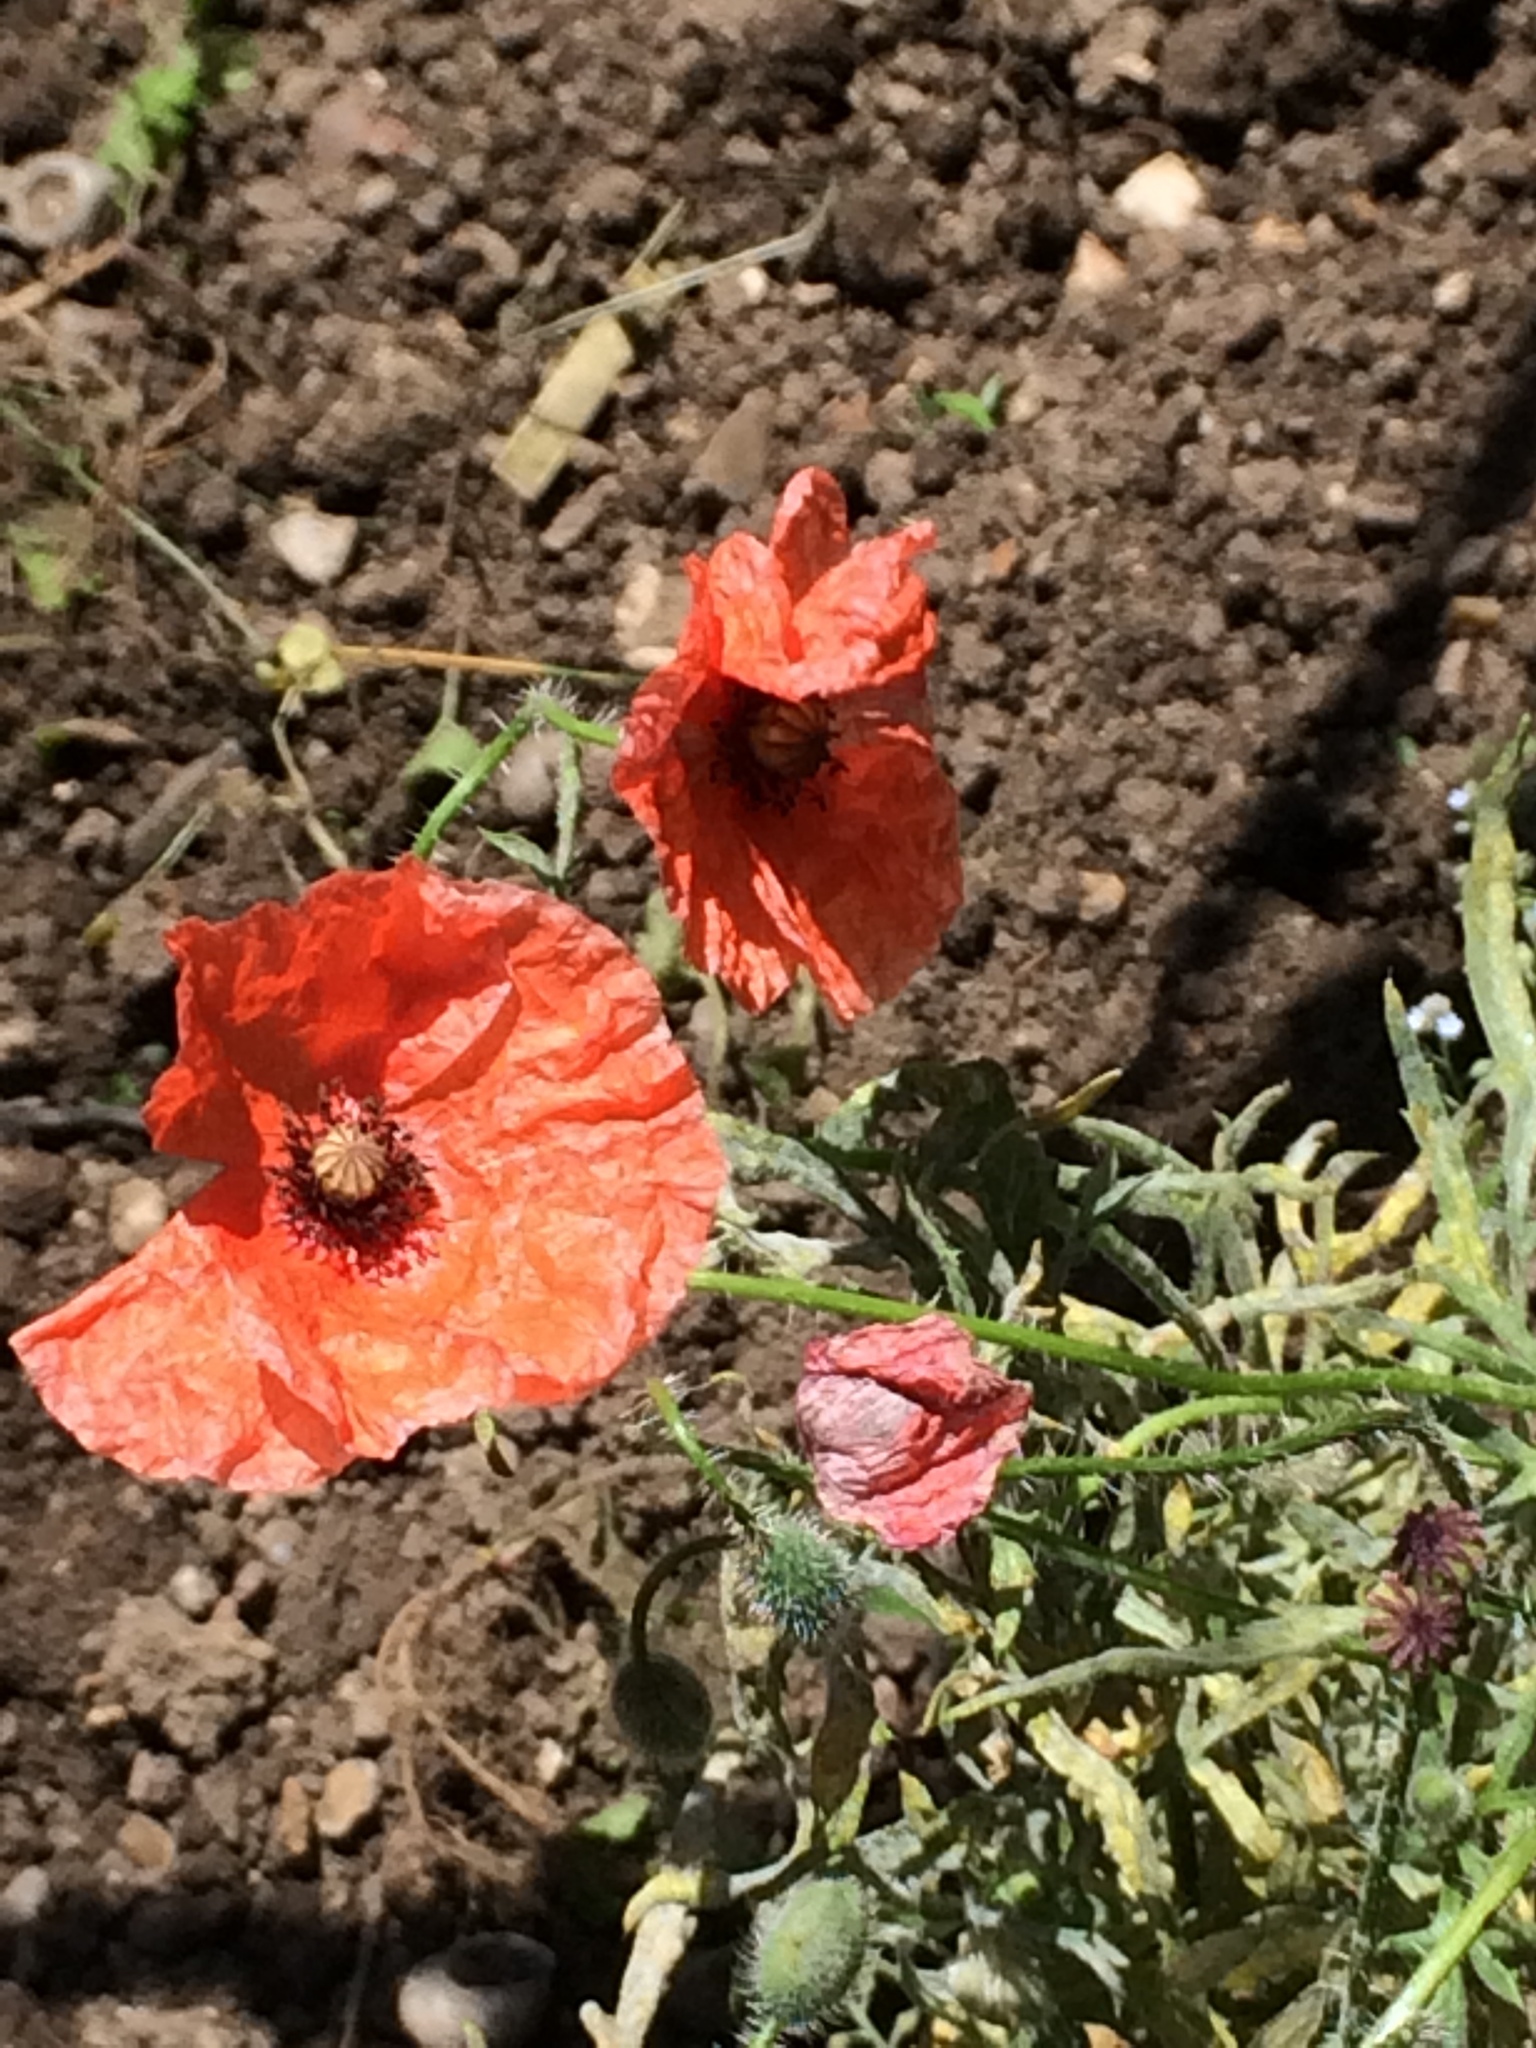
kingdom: Plantae
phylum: Tracheophyta
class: Magnoliopsida
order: Ranunculales
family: Papaveraceae
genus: Papaver
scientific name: Papaver rhoeas
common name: Corn poppy
